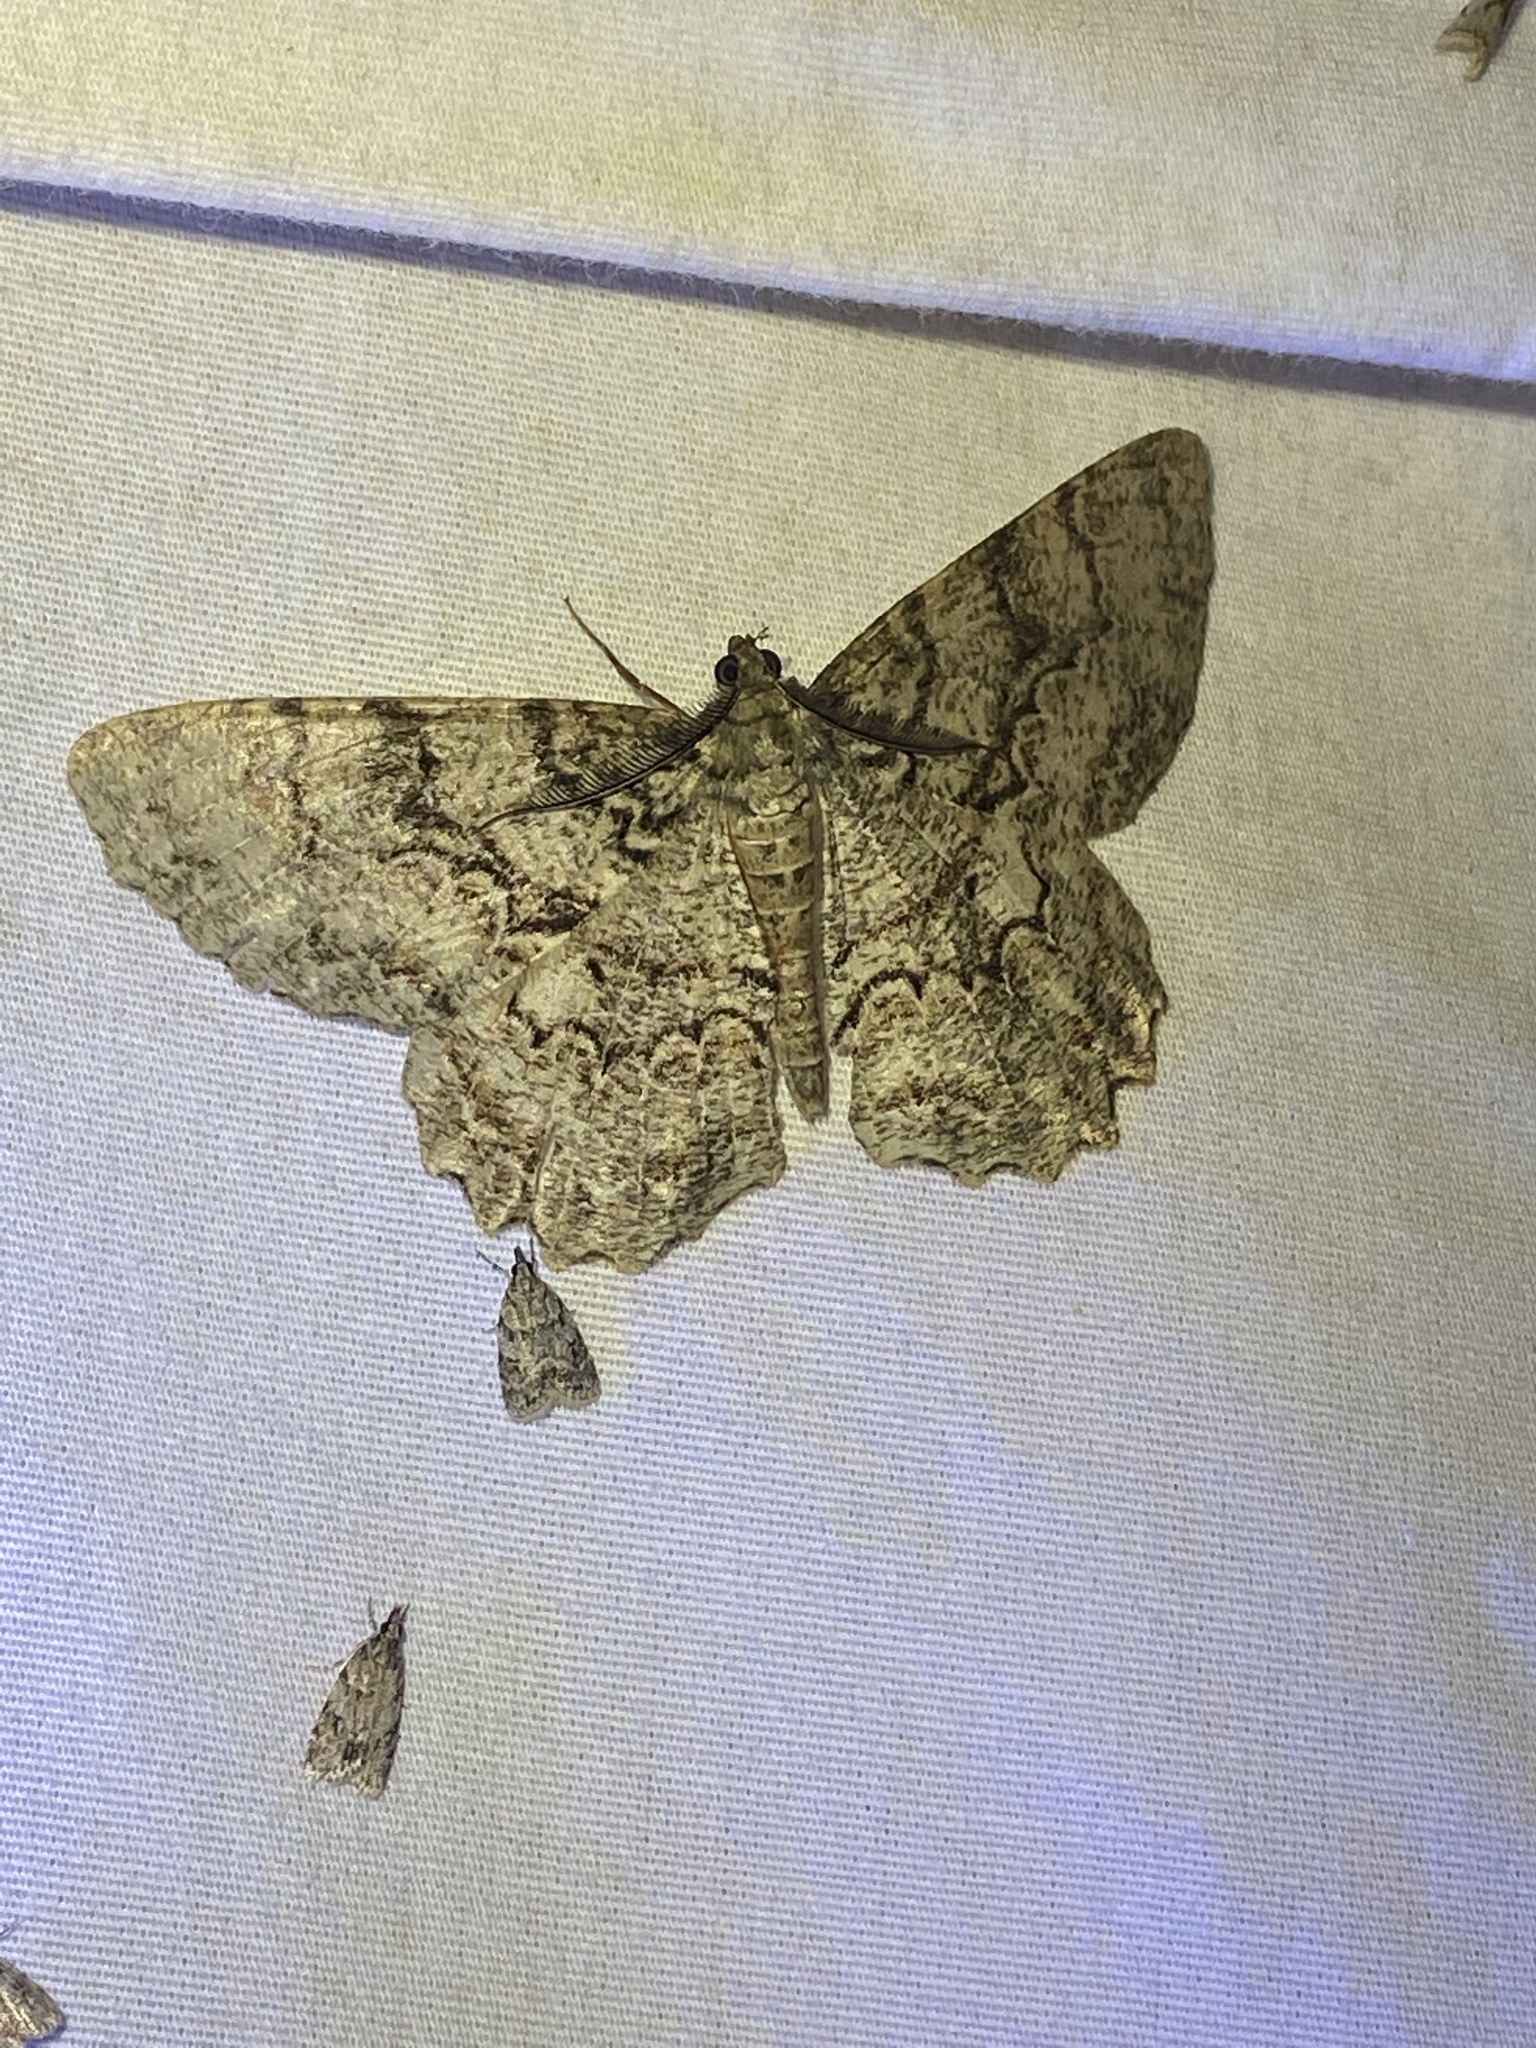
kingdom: Animalia
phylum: Arthropoda
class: Insecta
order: Lepidoptera
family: Geometridae
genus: Epimecis
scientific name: Epimecis hortaria
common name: Tulip-tree beauty
